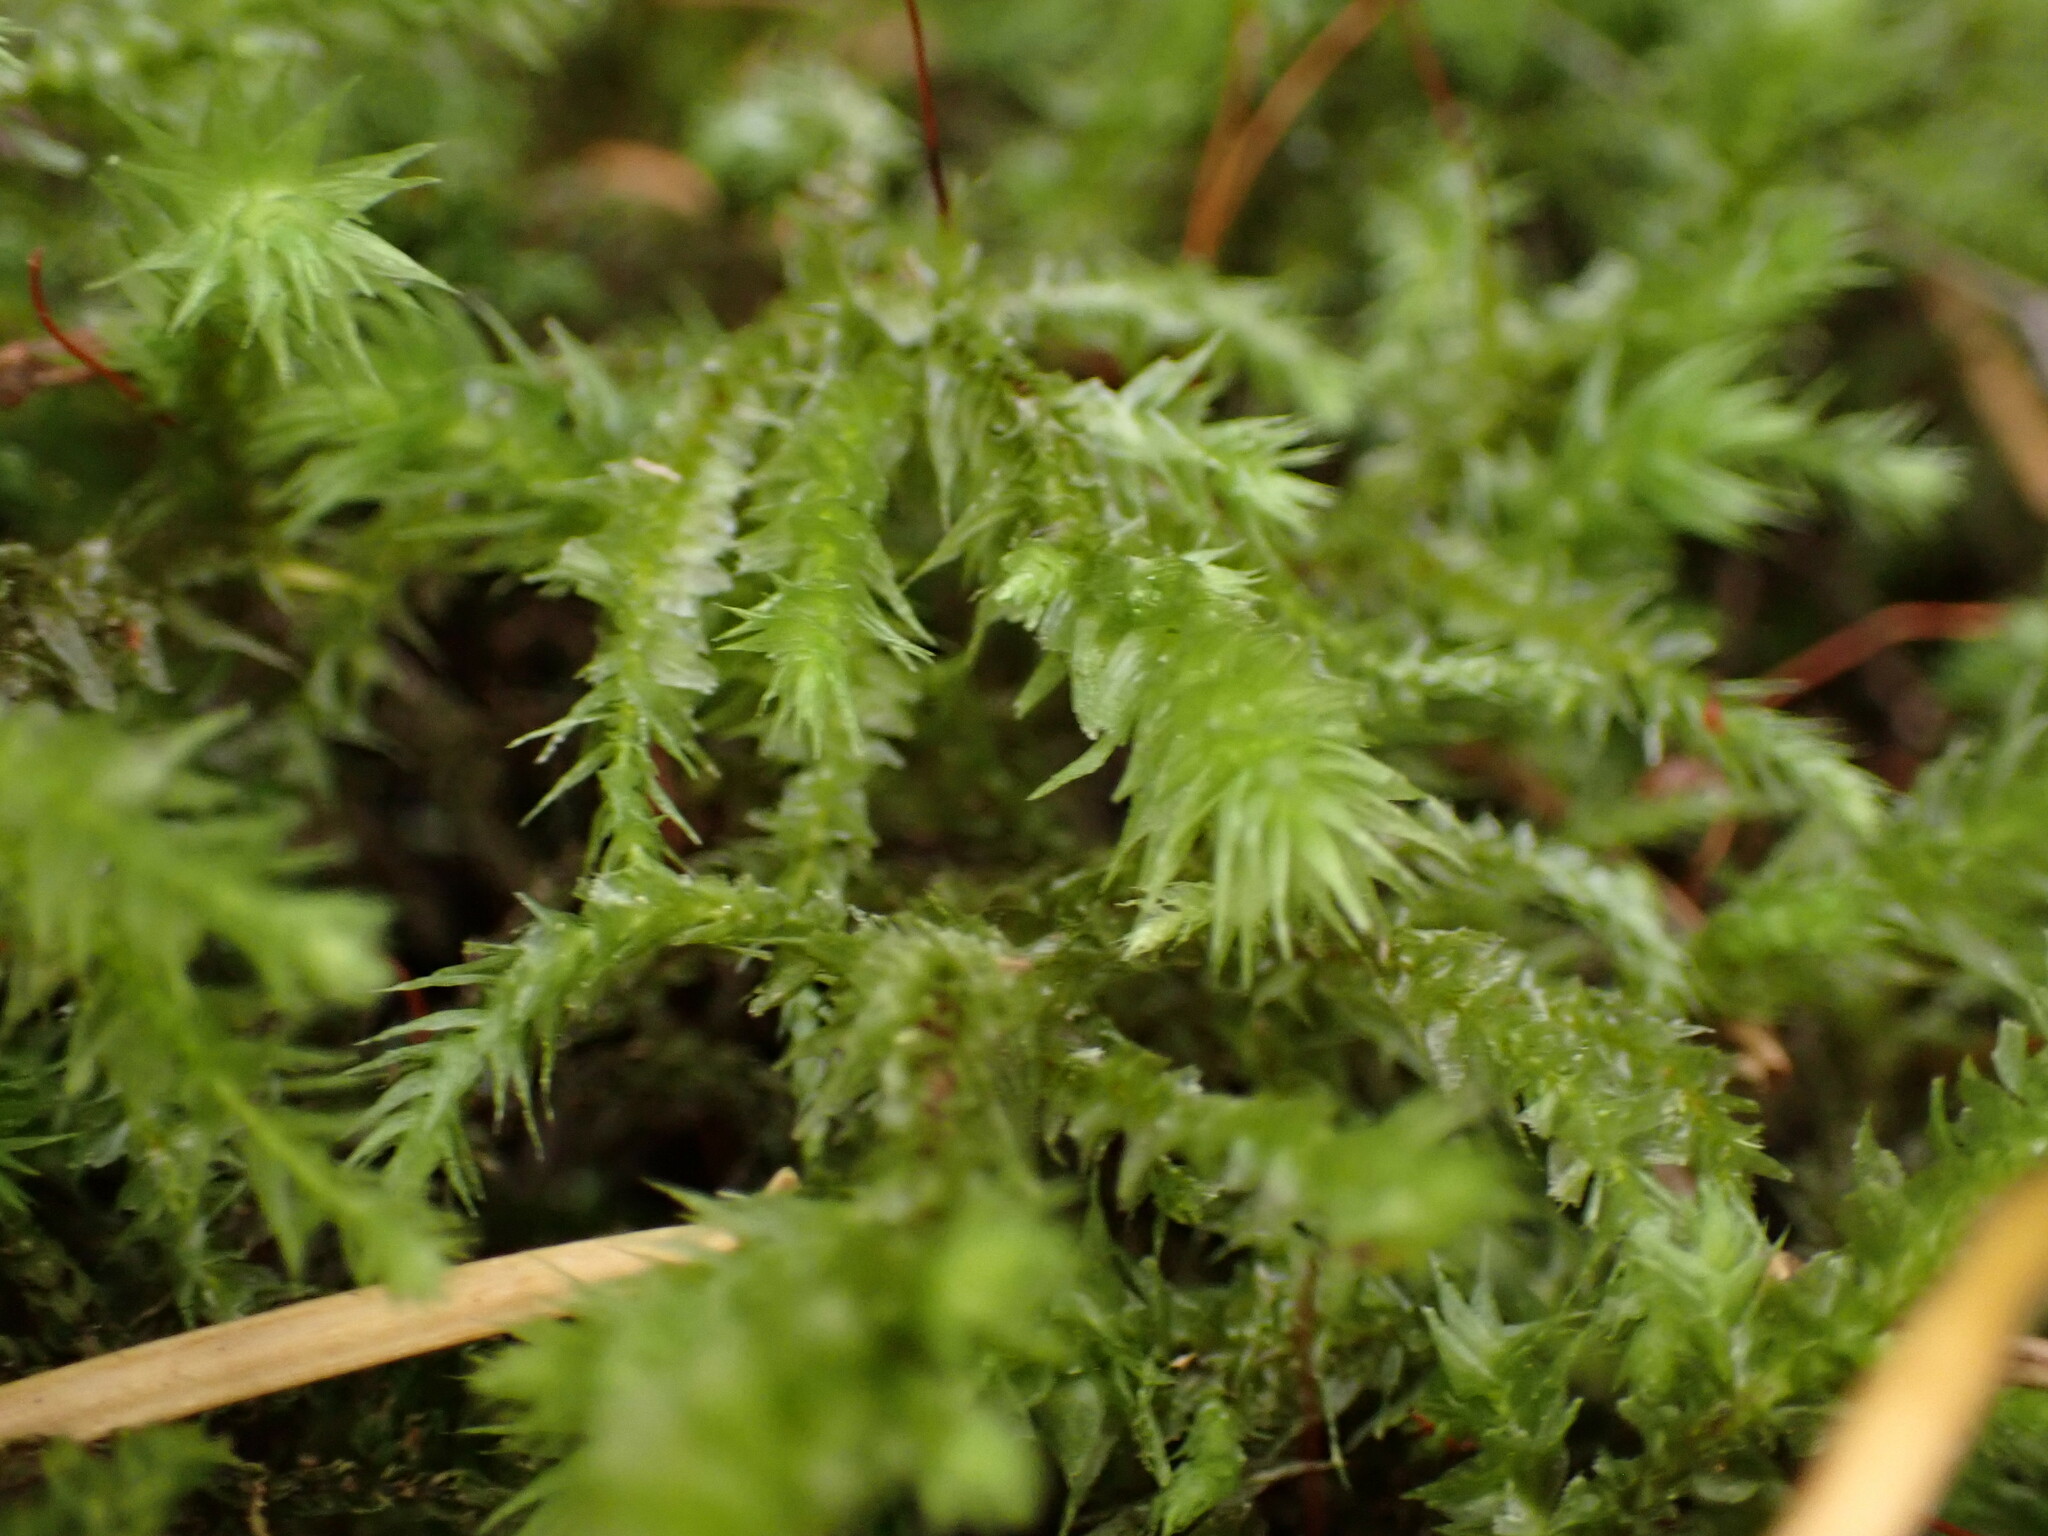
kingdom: Plantae
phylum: Bryophyta
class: Bryopsida
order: Hypnales
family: Hylocomiaceae
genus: Hylocomiadelphus
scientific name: Hylocomiadelphus triquetrus
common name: Rough goose neck moss
